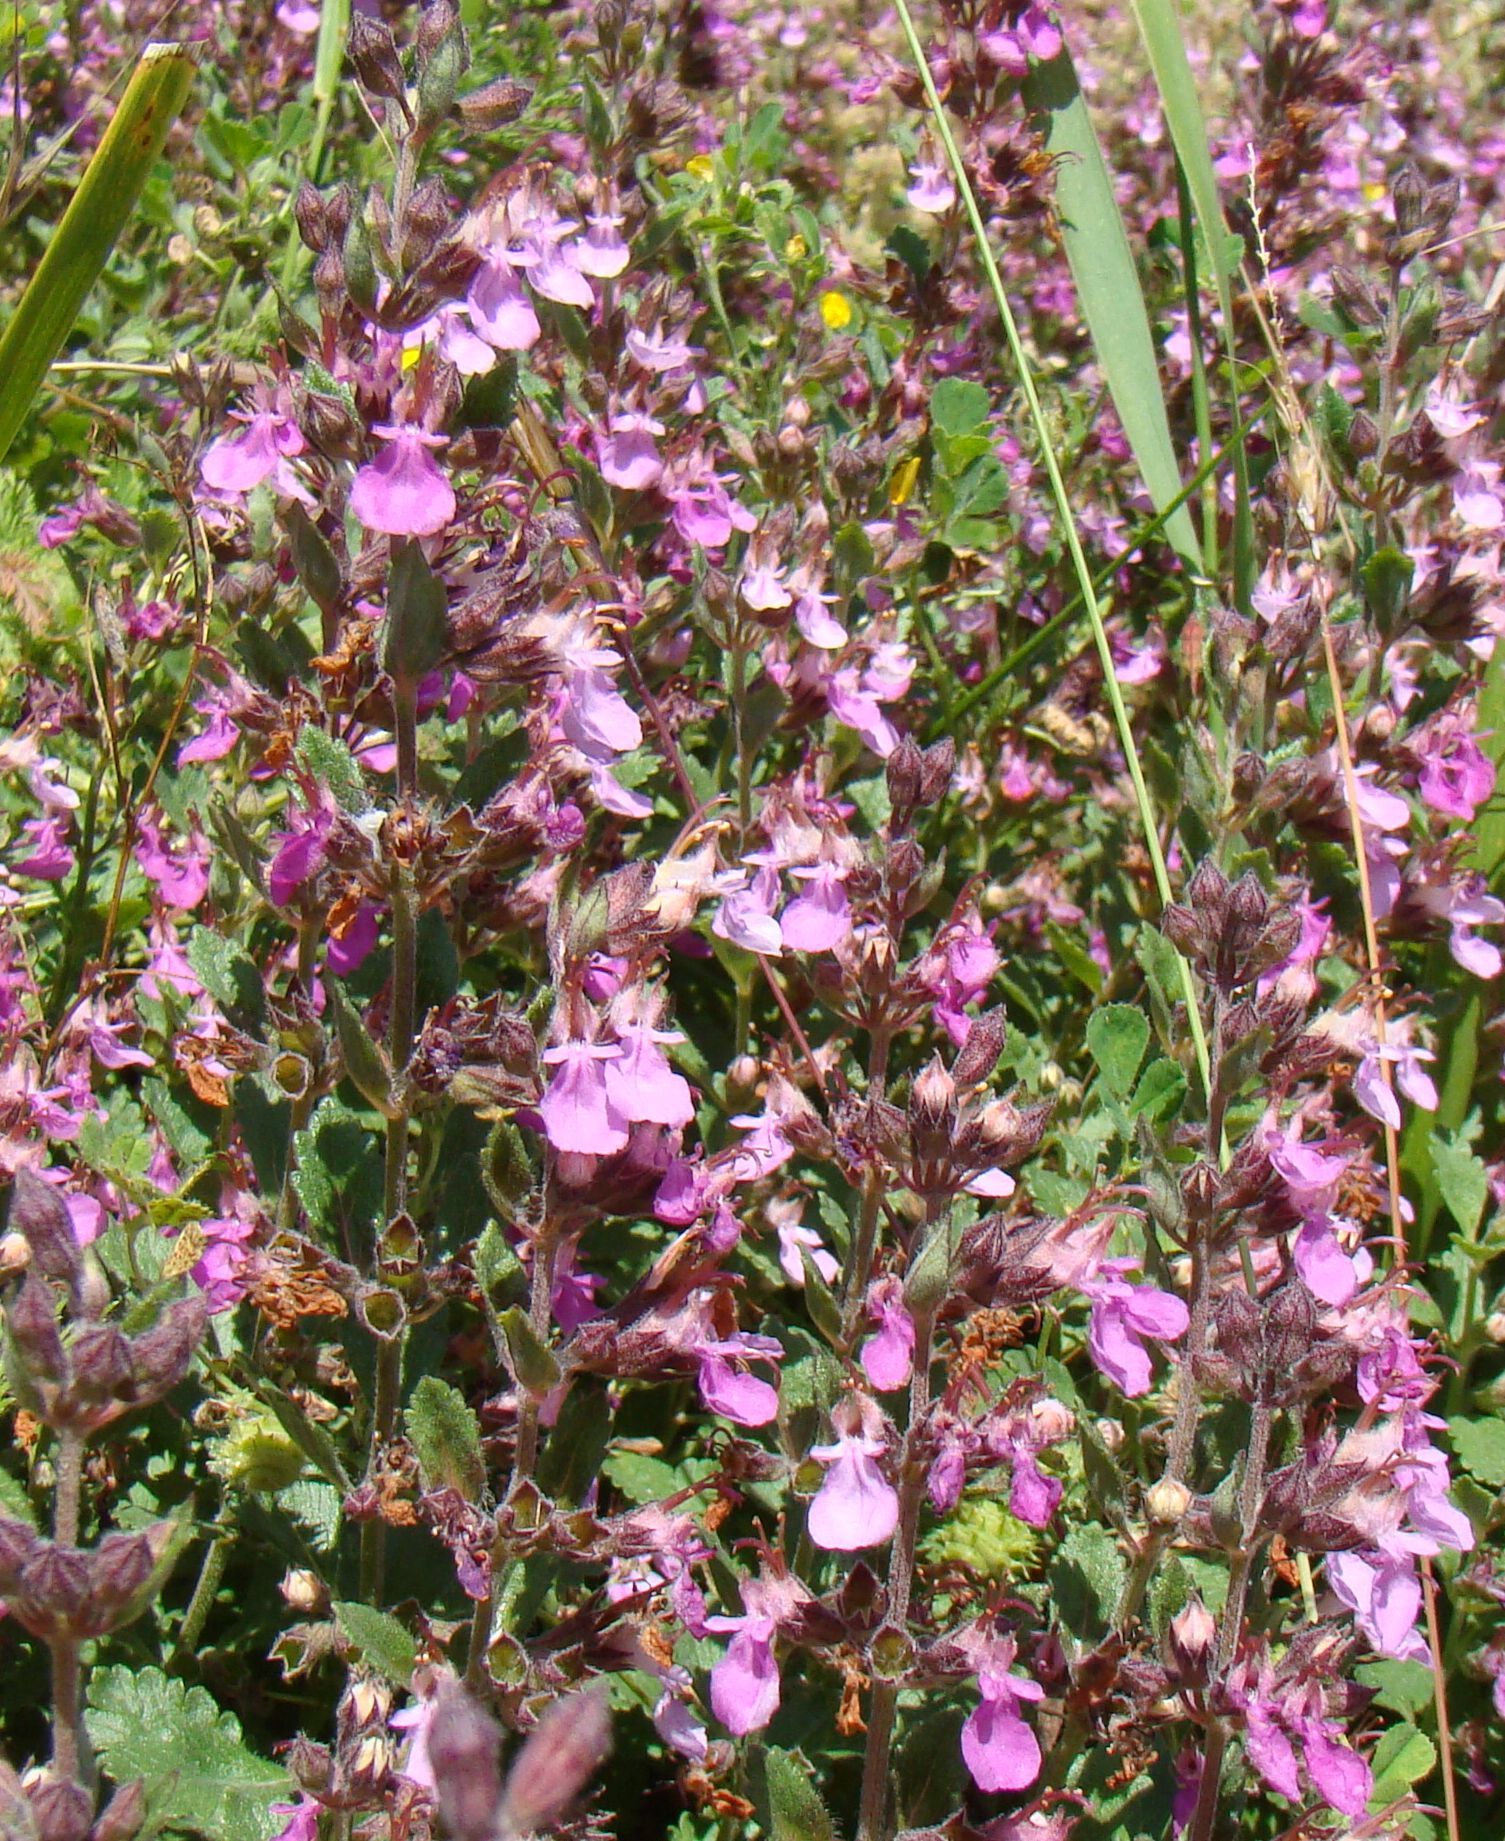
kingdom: Plantae
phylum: Tracheophyta
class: Magnoliopsida
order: Lamiales
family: Lamiaceae
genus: Teucrium
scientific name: Teucrium chamaedrys
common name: Wall germander
